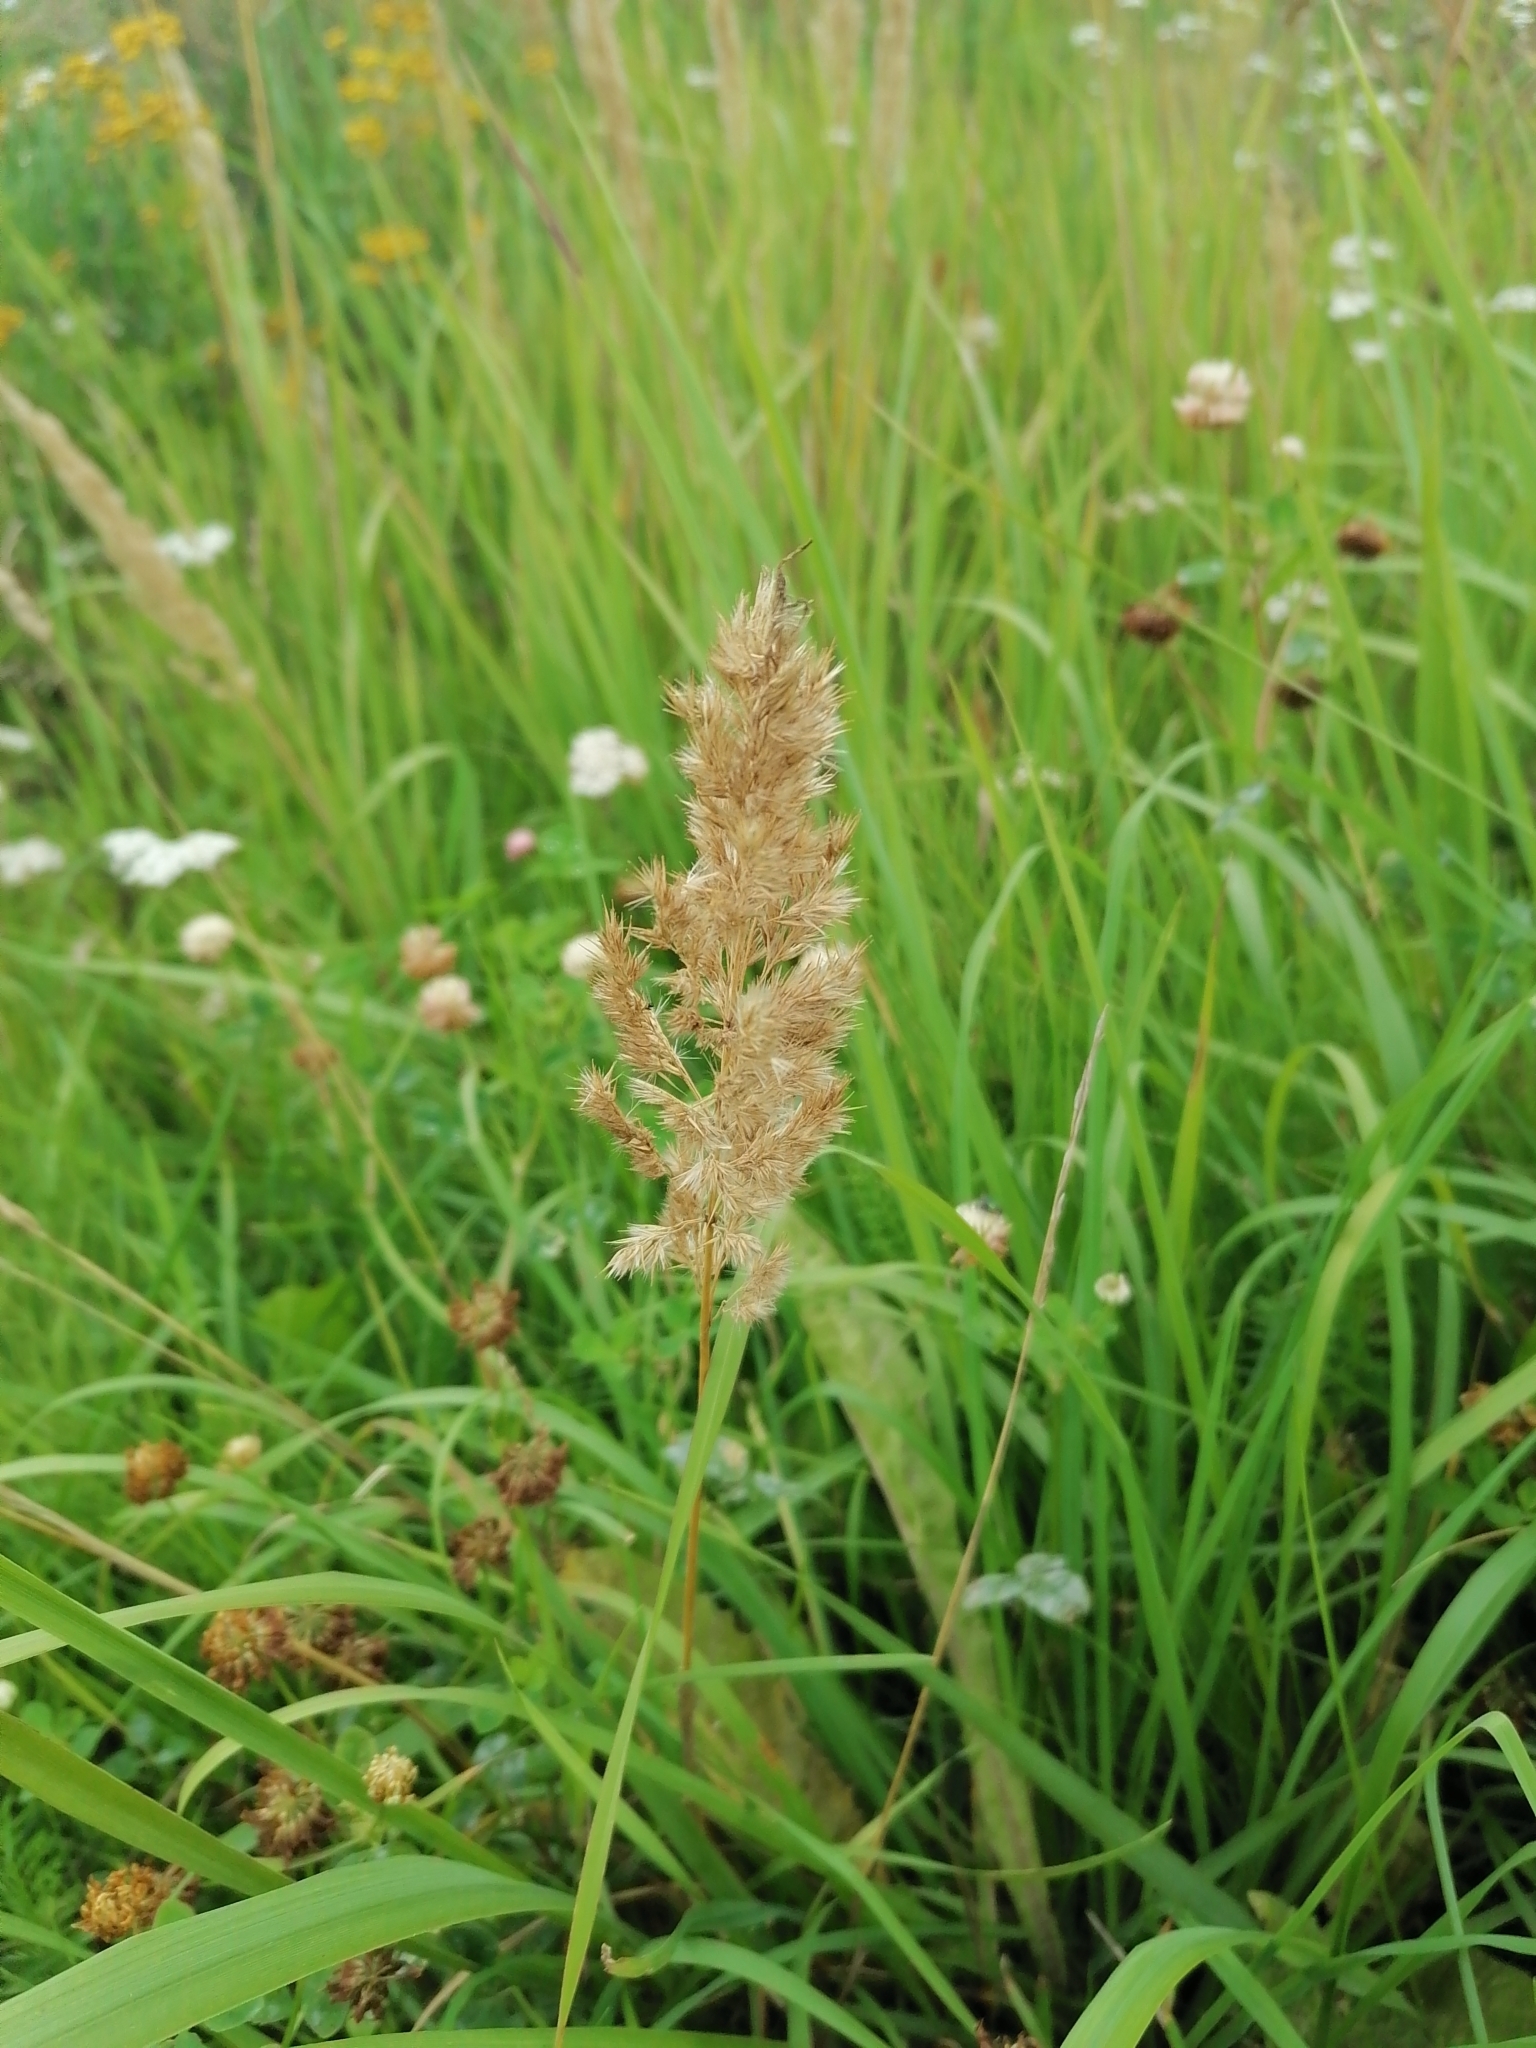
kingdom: Plantae
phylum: Tracheophyta
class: Liliopsida
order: Poales
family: Poaceae
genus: Calamagrostis
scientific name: Calamagrostis epigejos
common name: Wood small-reed
